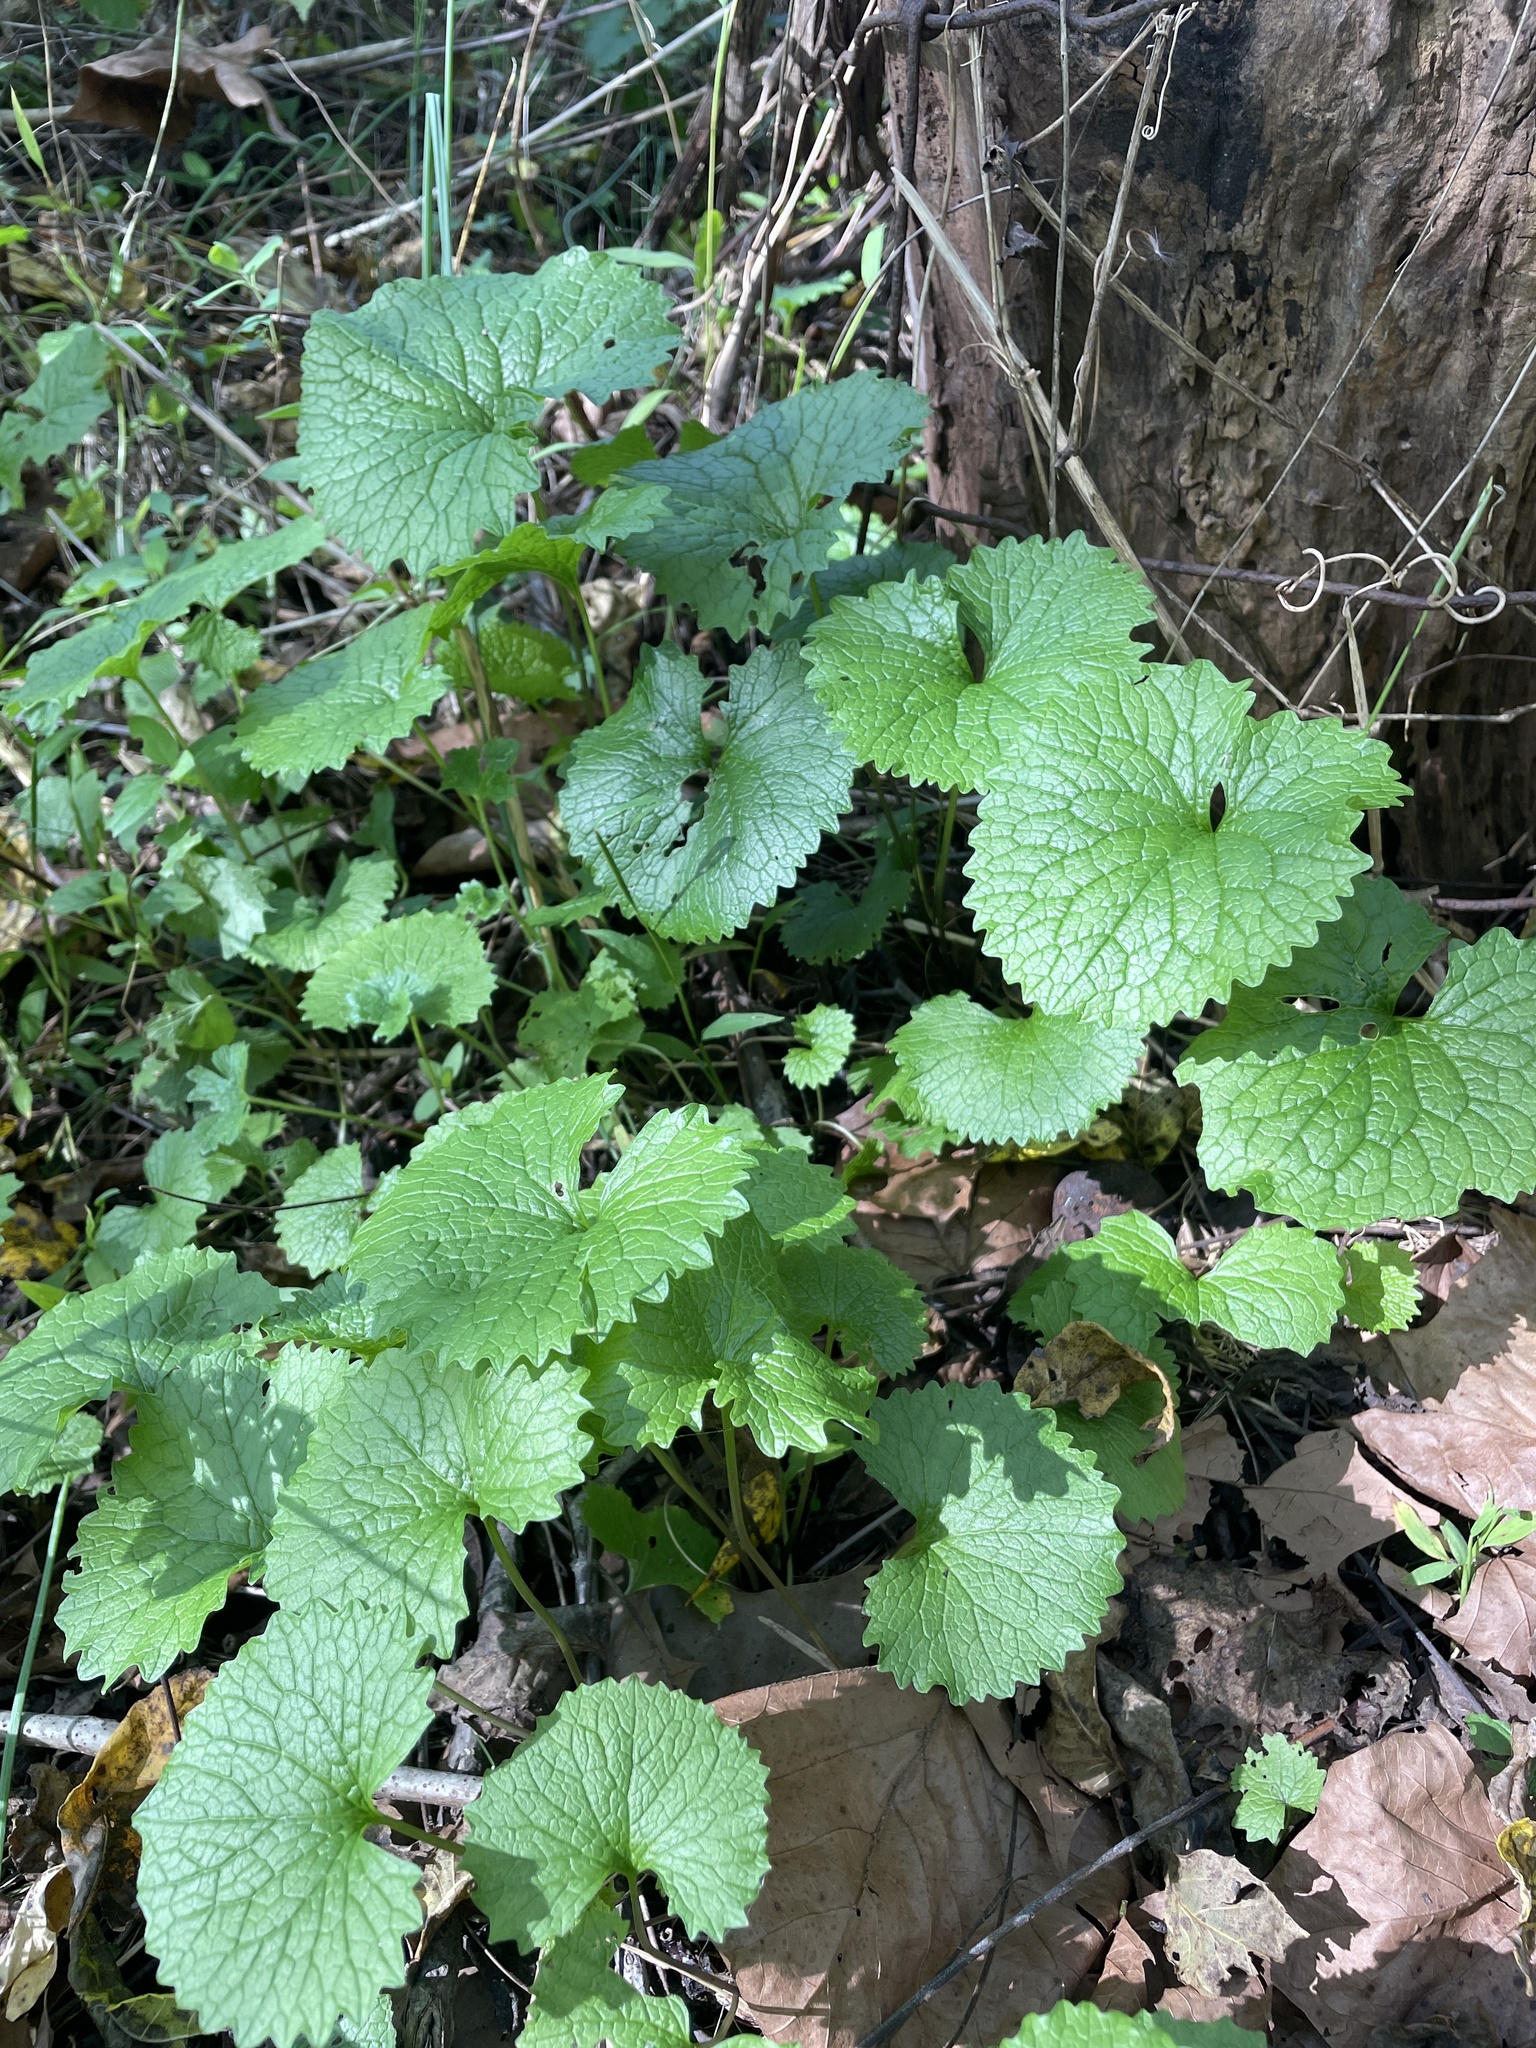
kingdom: Plantae
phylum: Tracheophyta
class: Magnoliopsida
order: Brassicales
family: Brassicaceae
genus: Alliaria
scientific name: Alliaria petiolata
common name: Garlic mustard
